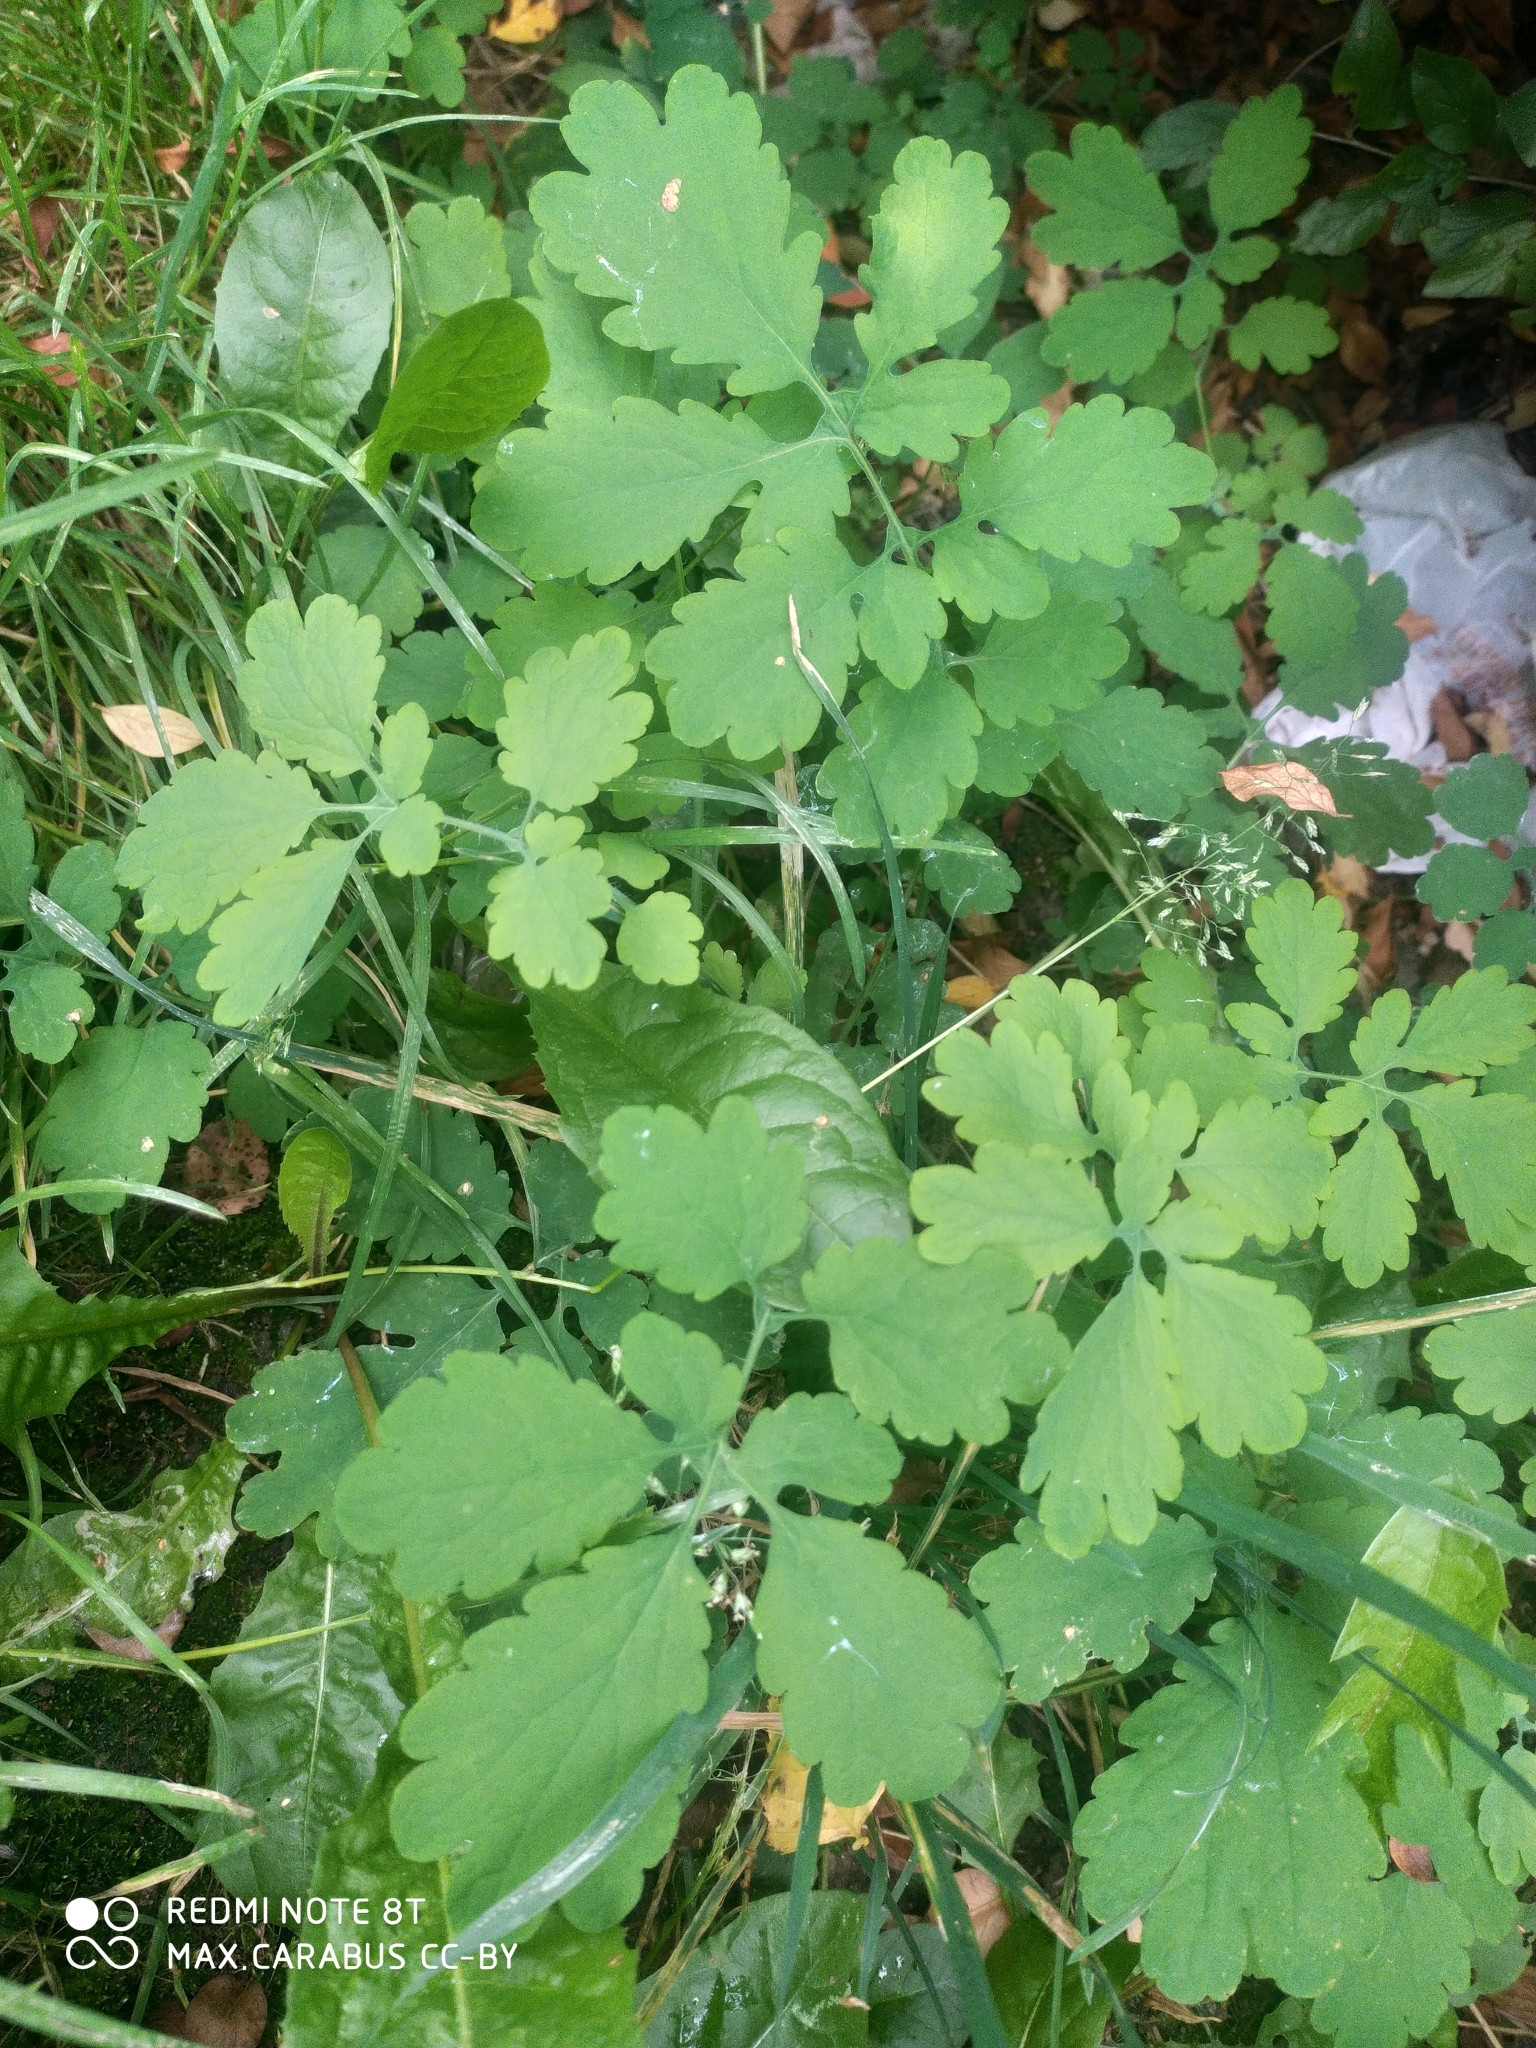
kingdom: Plantae
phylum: Tracheophyta
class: Magnoliopsida
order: Ranunculales
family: Papaveraceae
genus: Chelidonium
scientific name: Chelidonium majus
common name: Greater celandine
